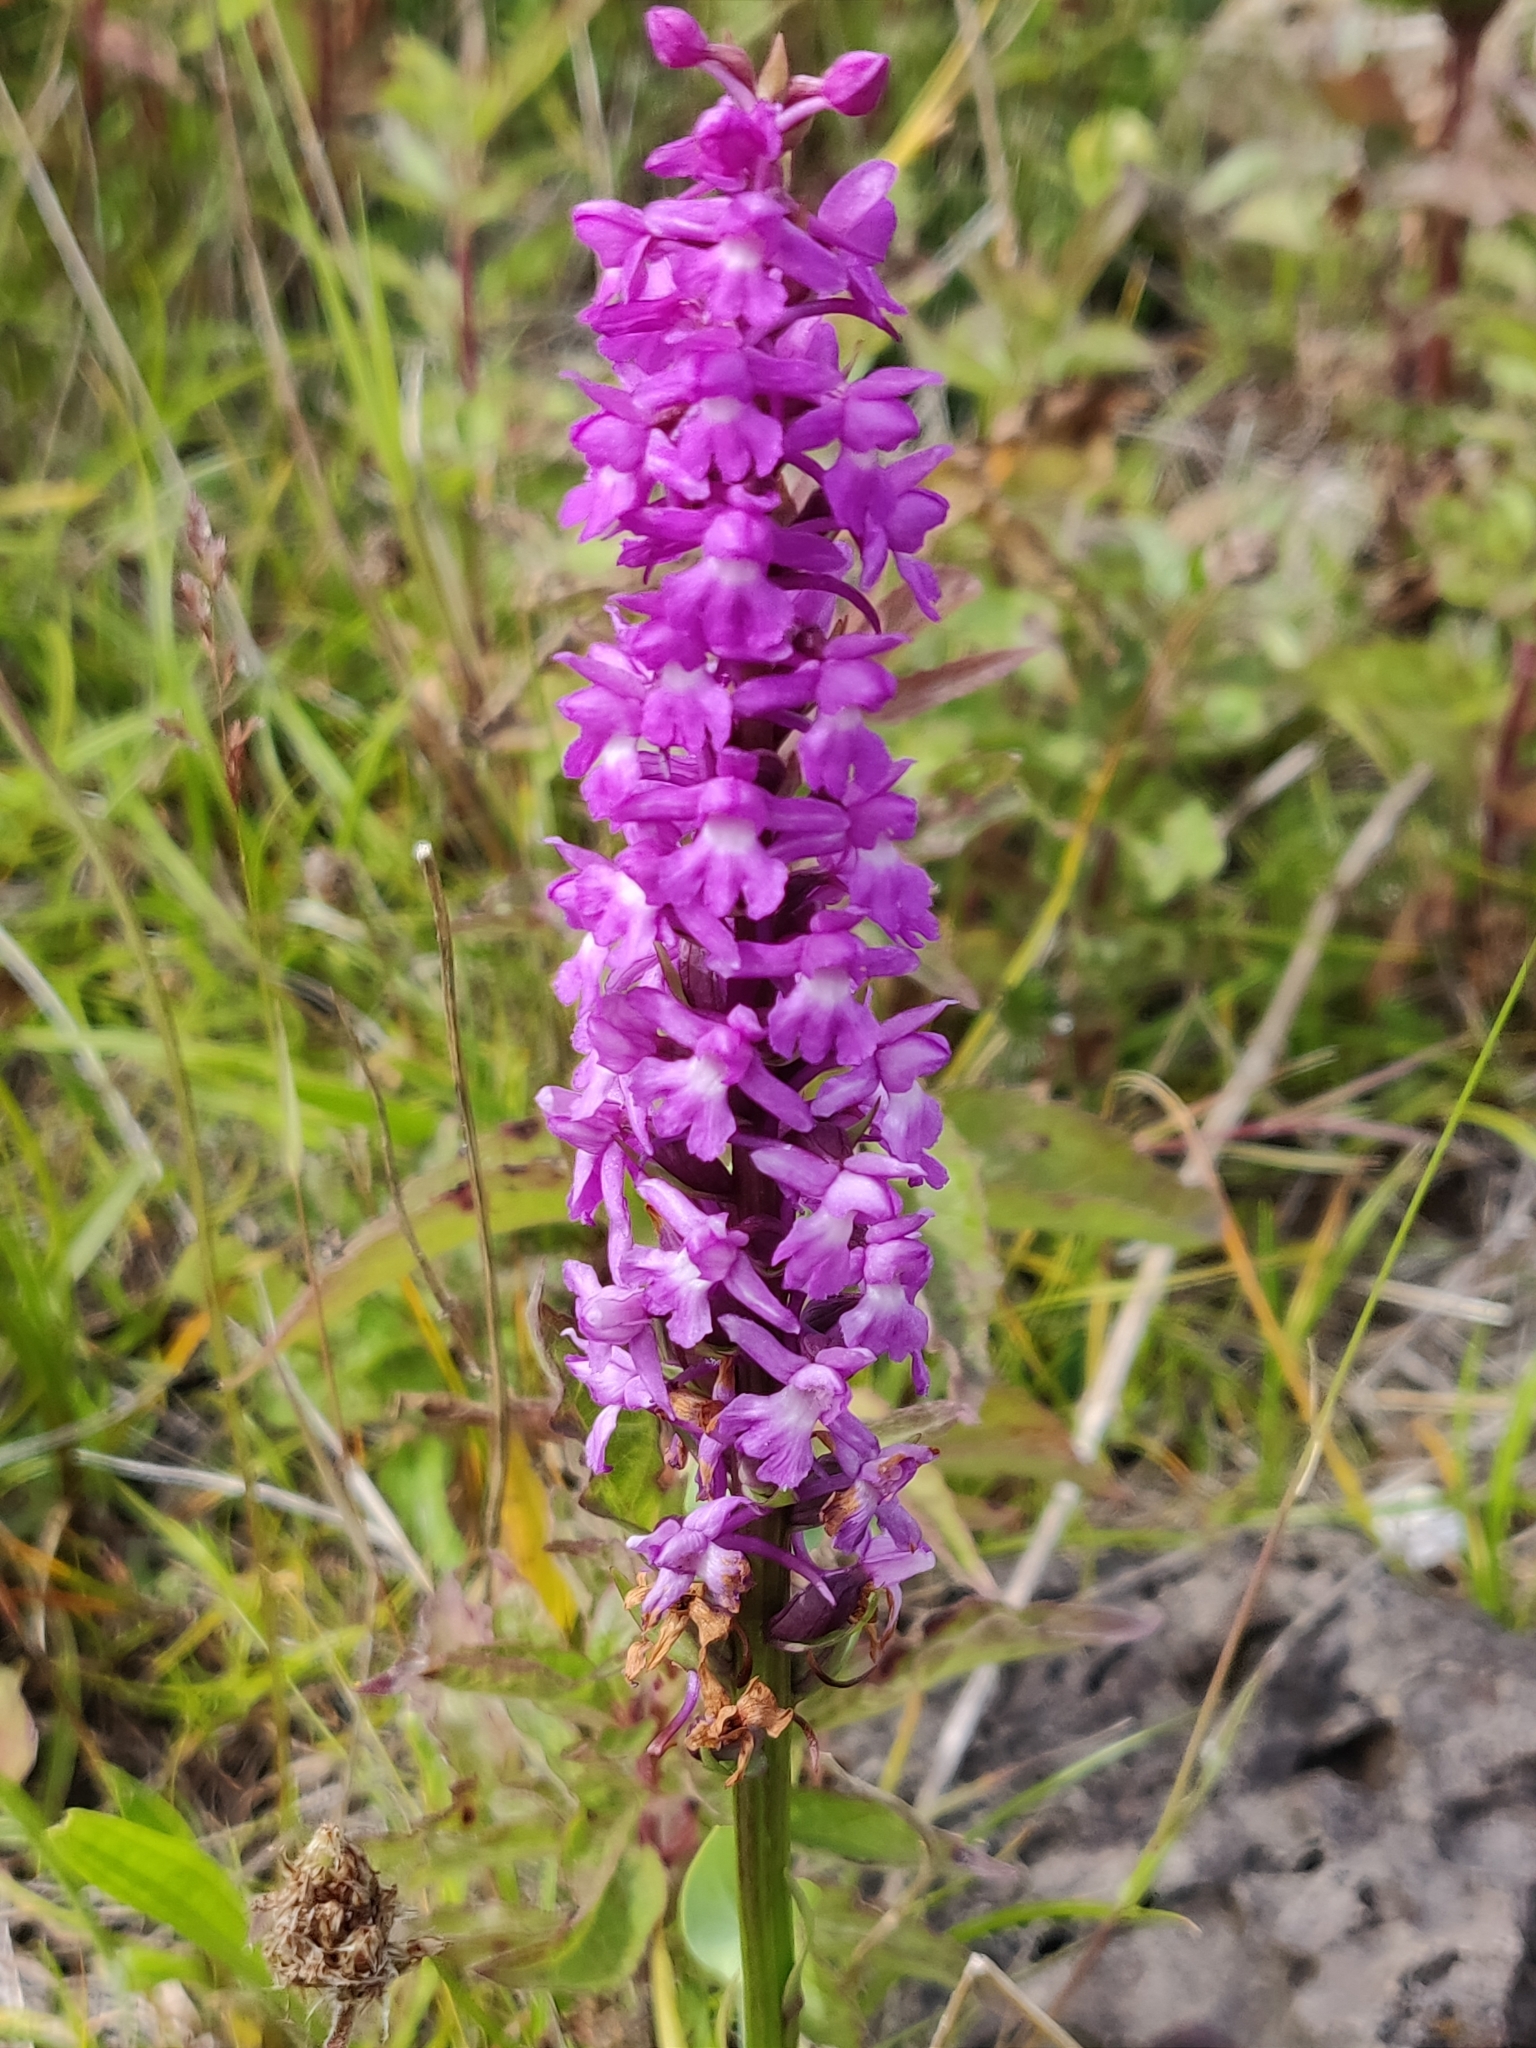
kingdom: Plantae
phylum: Tracheophyta
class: Liliopsida
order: Asparagales
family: Orchidaceae
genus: Gymnadenia
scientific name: Gymnadenia conopsea
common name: Fragrant orchid
